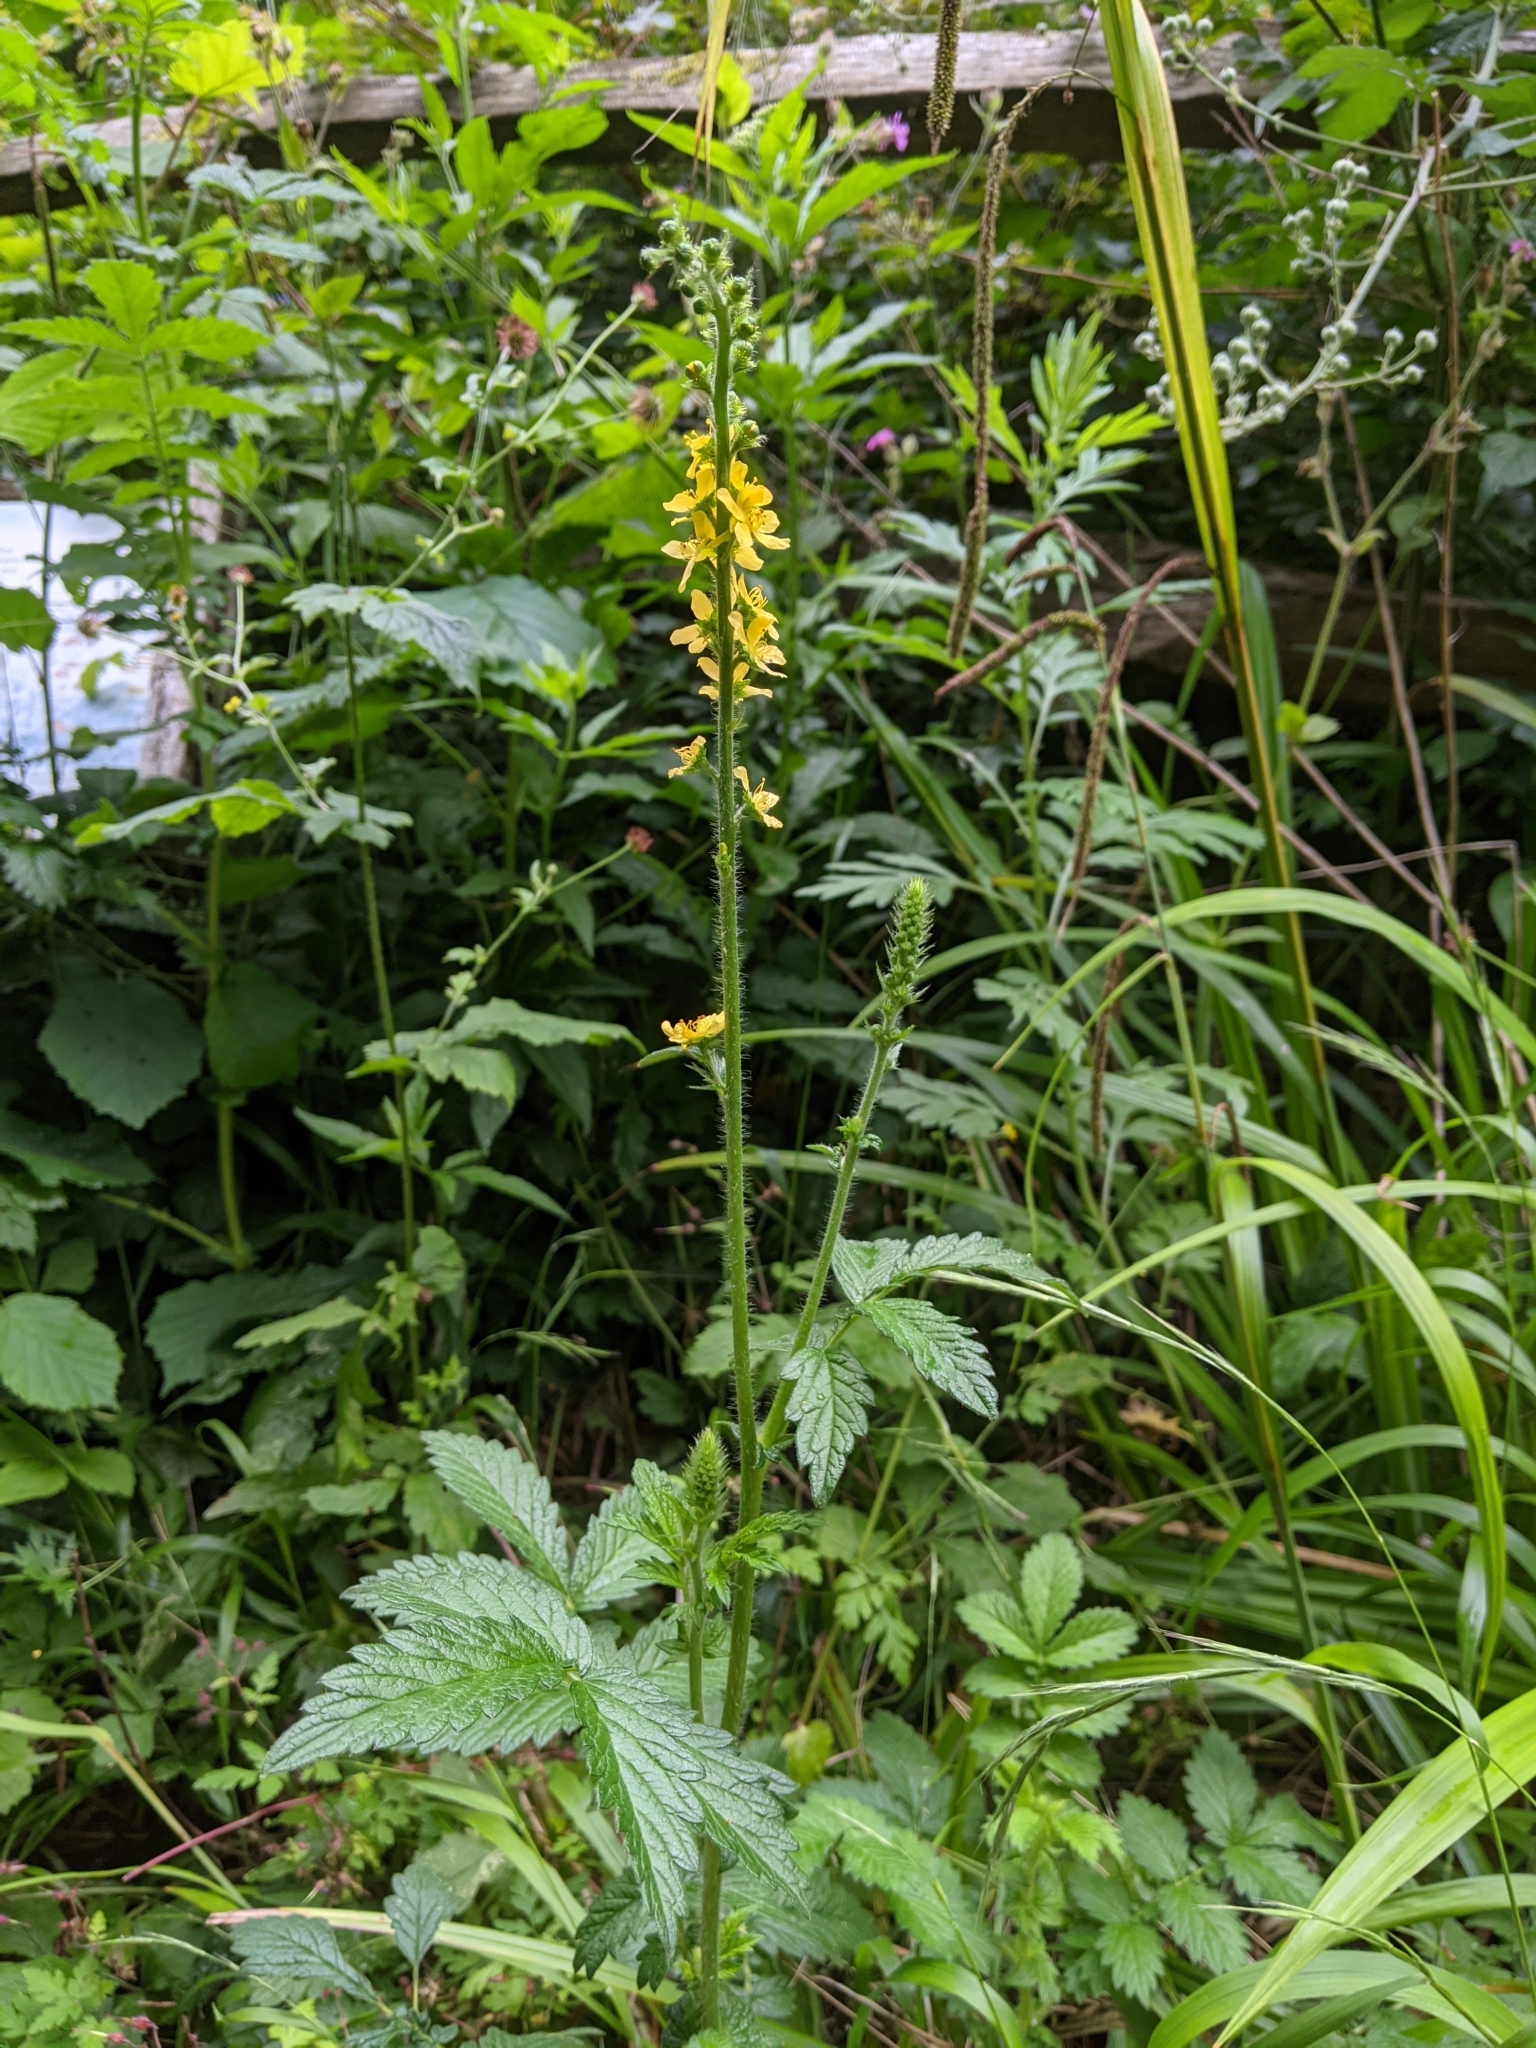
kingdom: Plantae
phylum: Tracheophyta
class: Magnoliopsida
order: Rosales
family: Rosaceae
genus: Agrimonia
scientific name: Agrimonia eupatoria
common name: Agrimony
